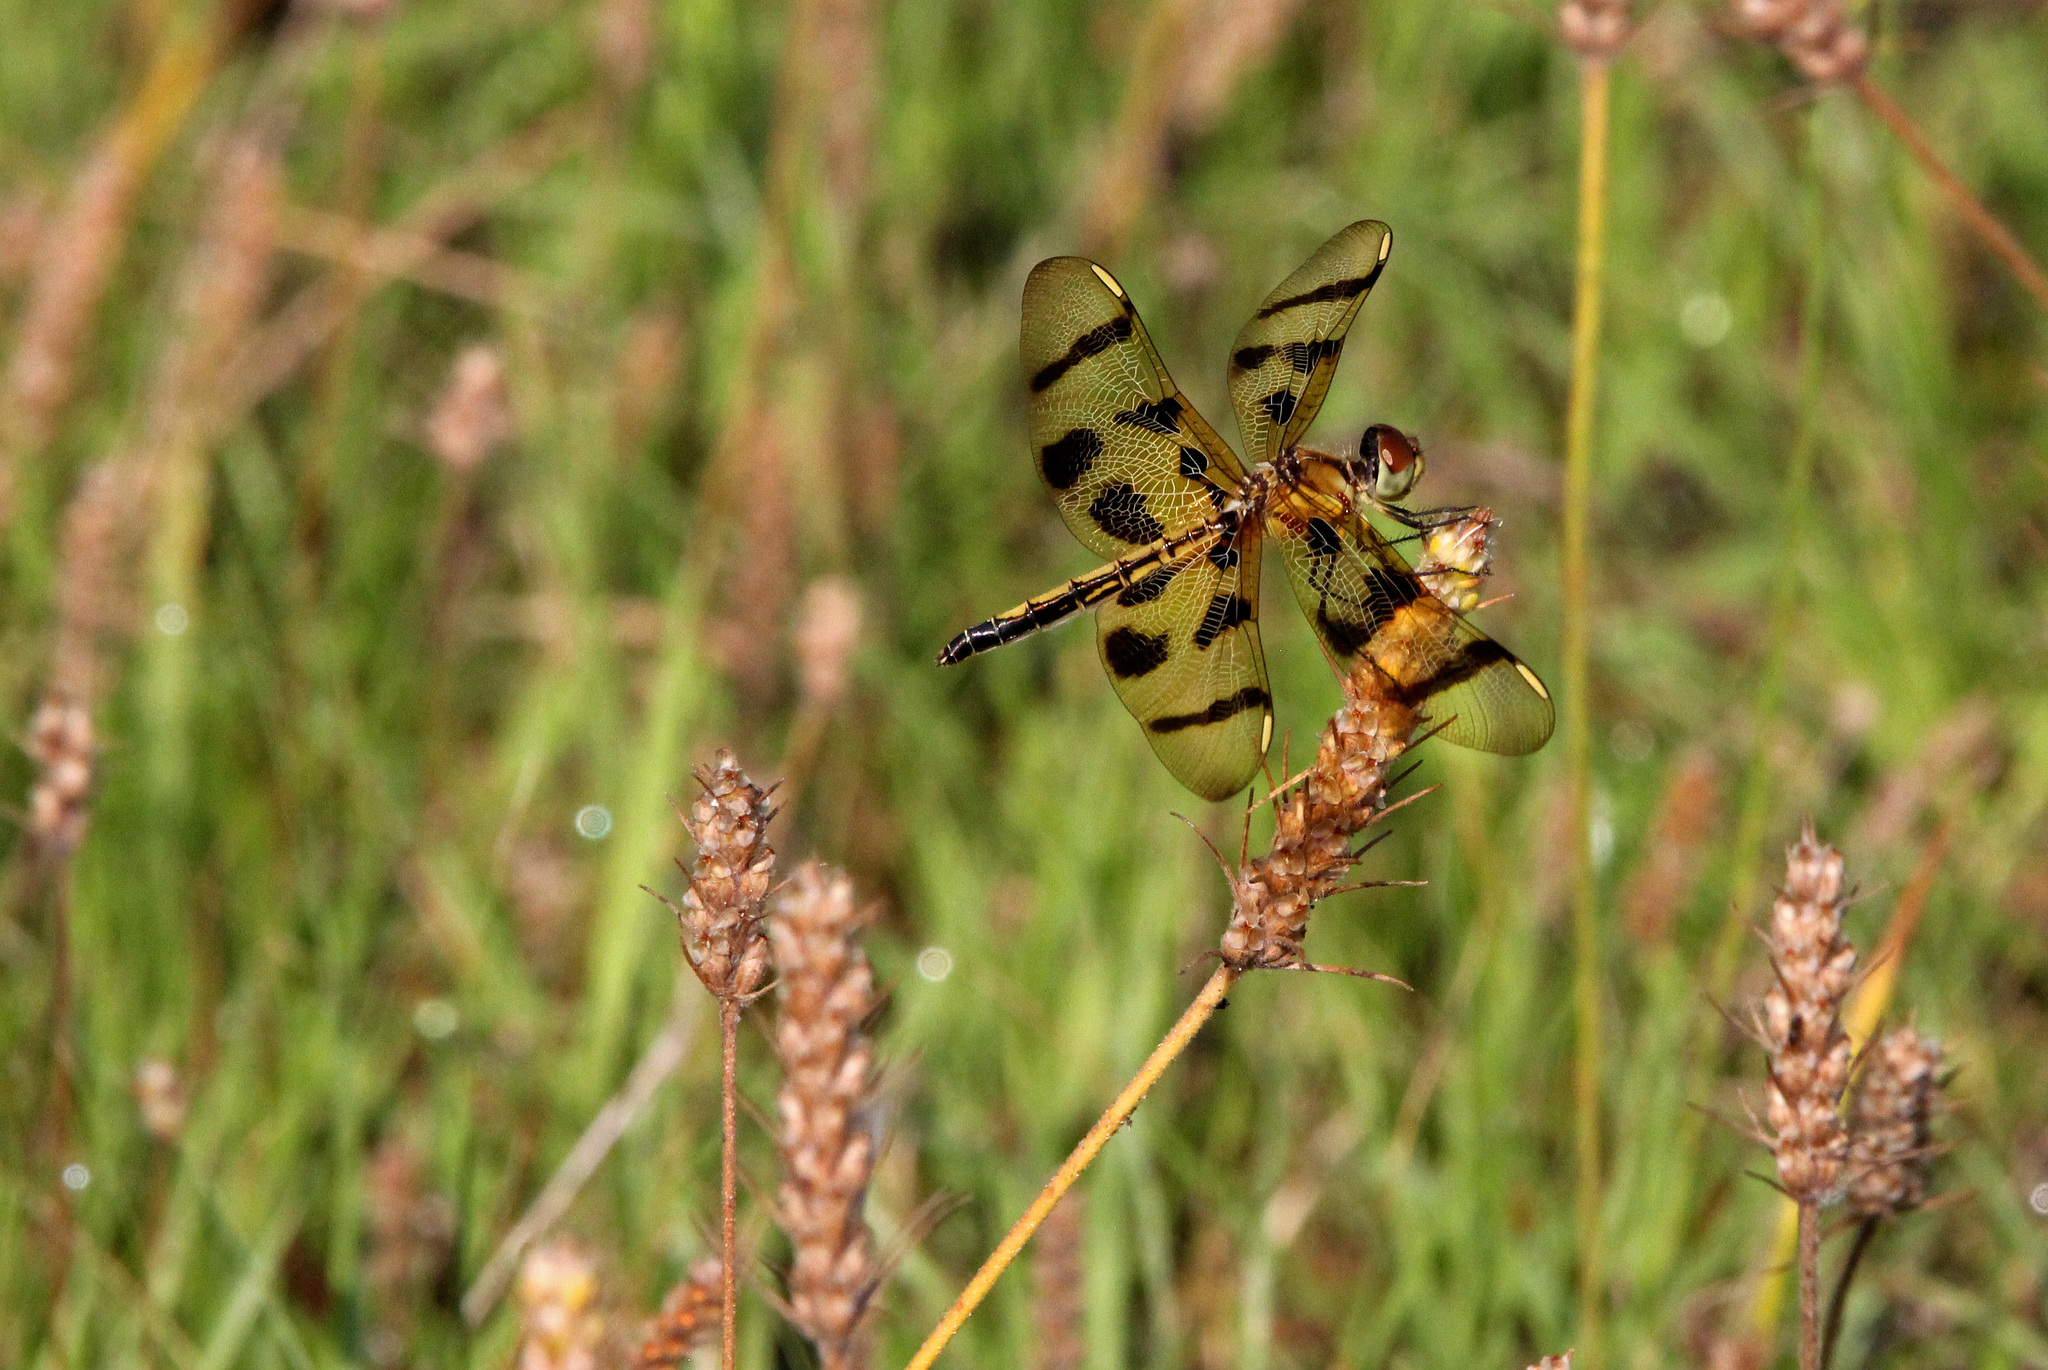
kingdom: Animalia
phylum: Arthropoda
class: Insecta
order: Odonata
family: Libellulidae
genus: Celithemis
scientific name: Celithemis eponina
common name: Halloween pennant
